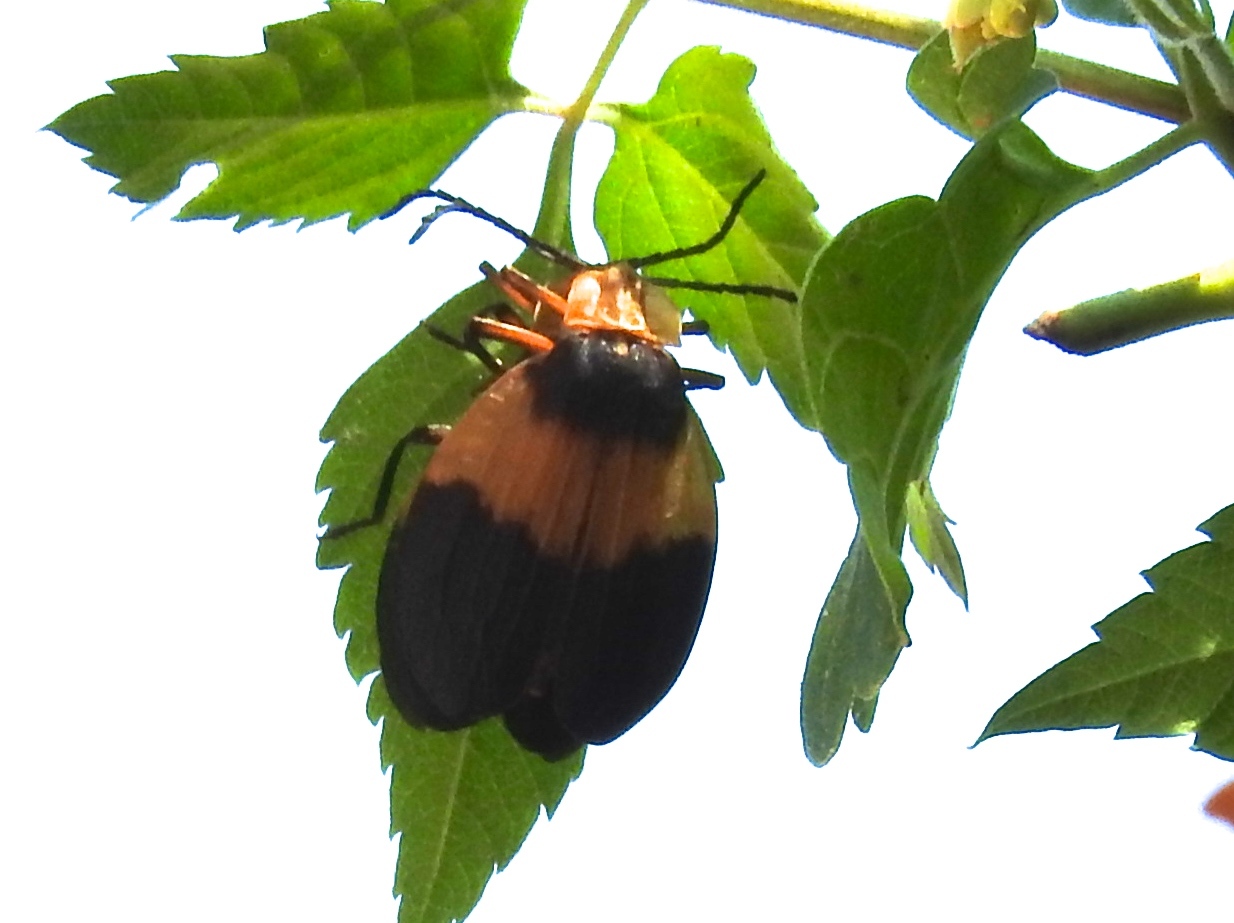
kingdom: Animalia
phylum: Arthropoda
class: Insecta
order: Coleoptera
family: Lycidae
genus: Lycus
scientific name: Lycus
